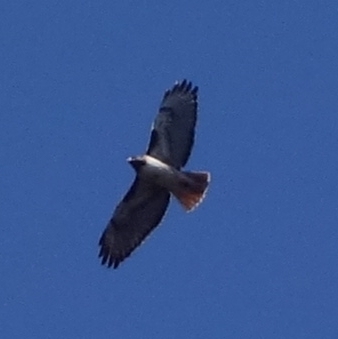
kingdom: Animalia
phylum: Chordata
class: Aves
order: Accipitriformes
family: Accipitridae
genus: Buteo
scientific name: Buteo jamaicensis
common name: Red-tailed hawk
